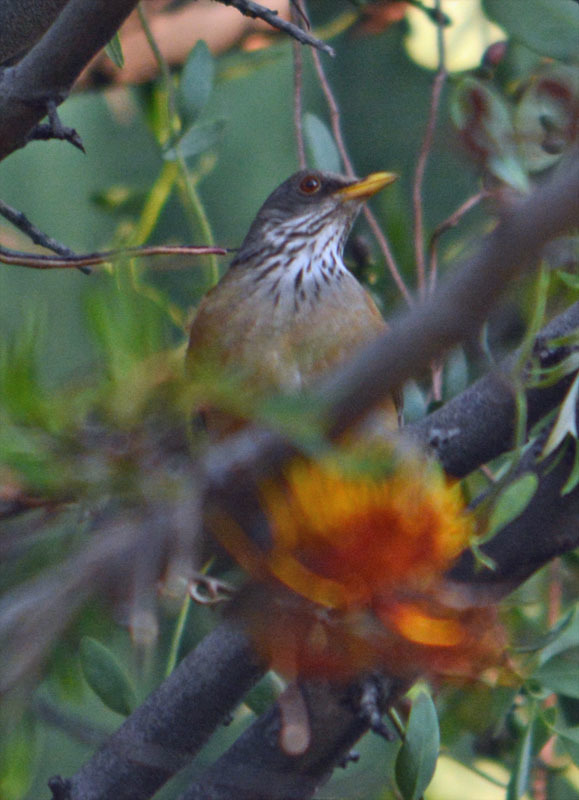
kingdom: Animalia
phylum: Chordata
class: Aves
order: Passeriformes
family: Turdidae
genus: Turdus
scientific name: Turdus rufopalliatus
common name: Rufous-backed robin
